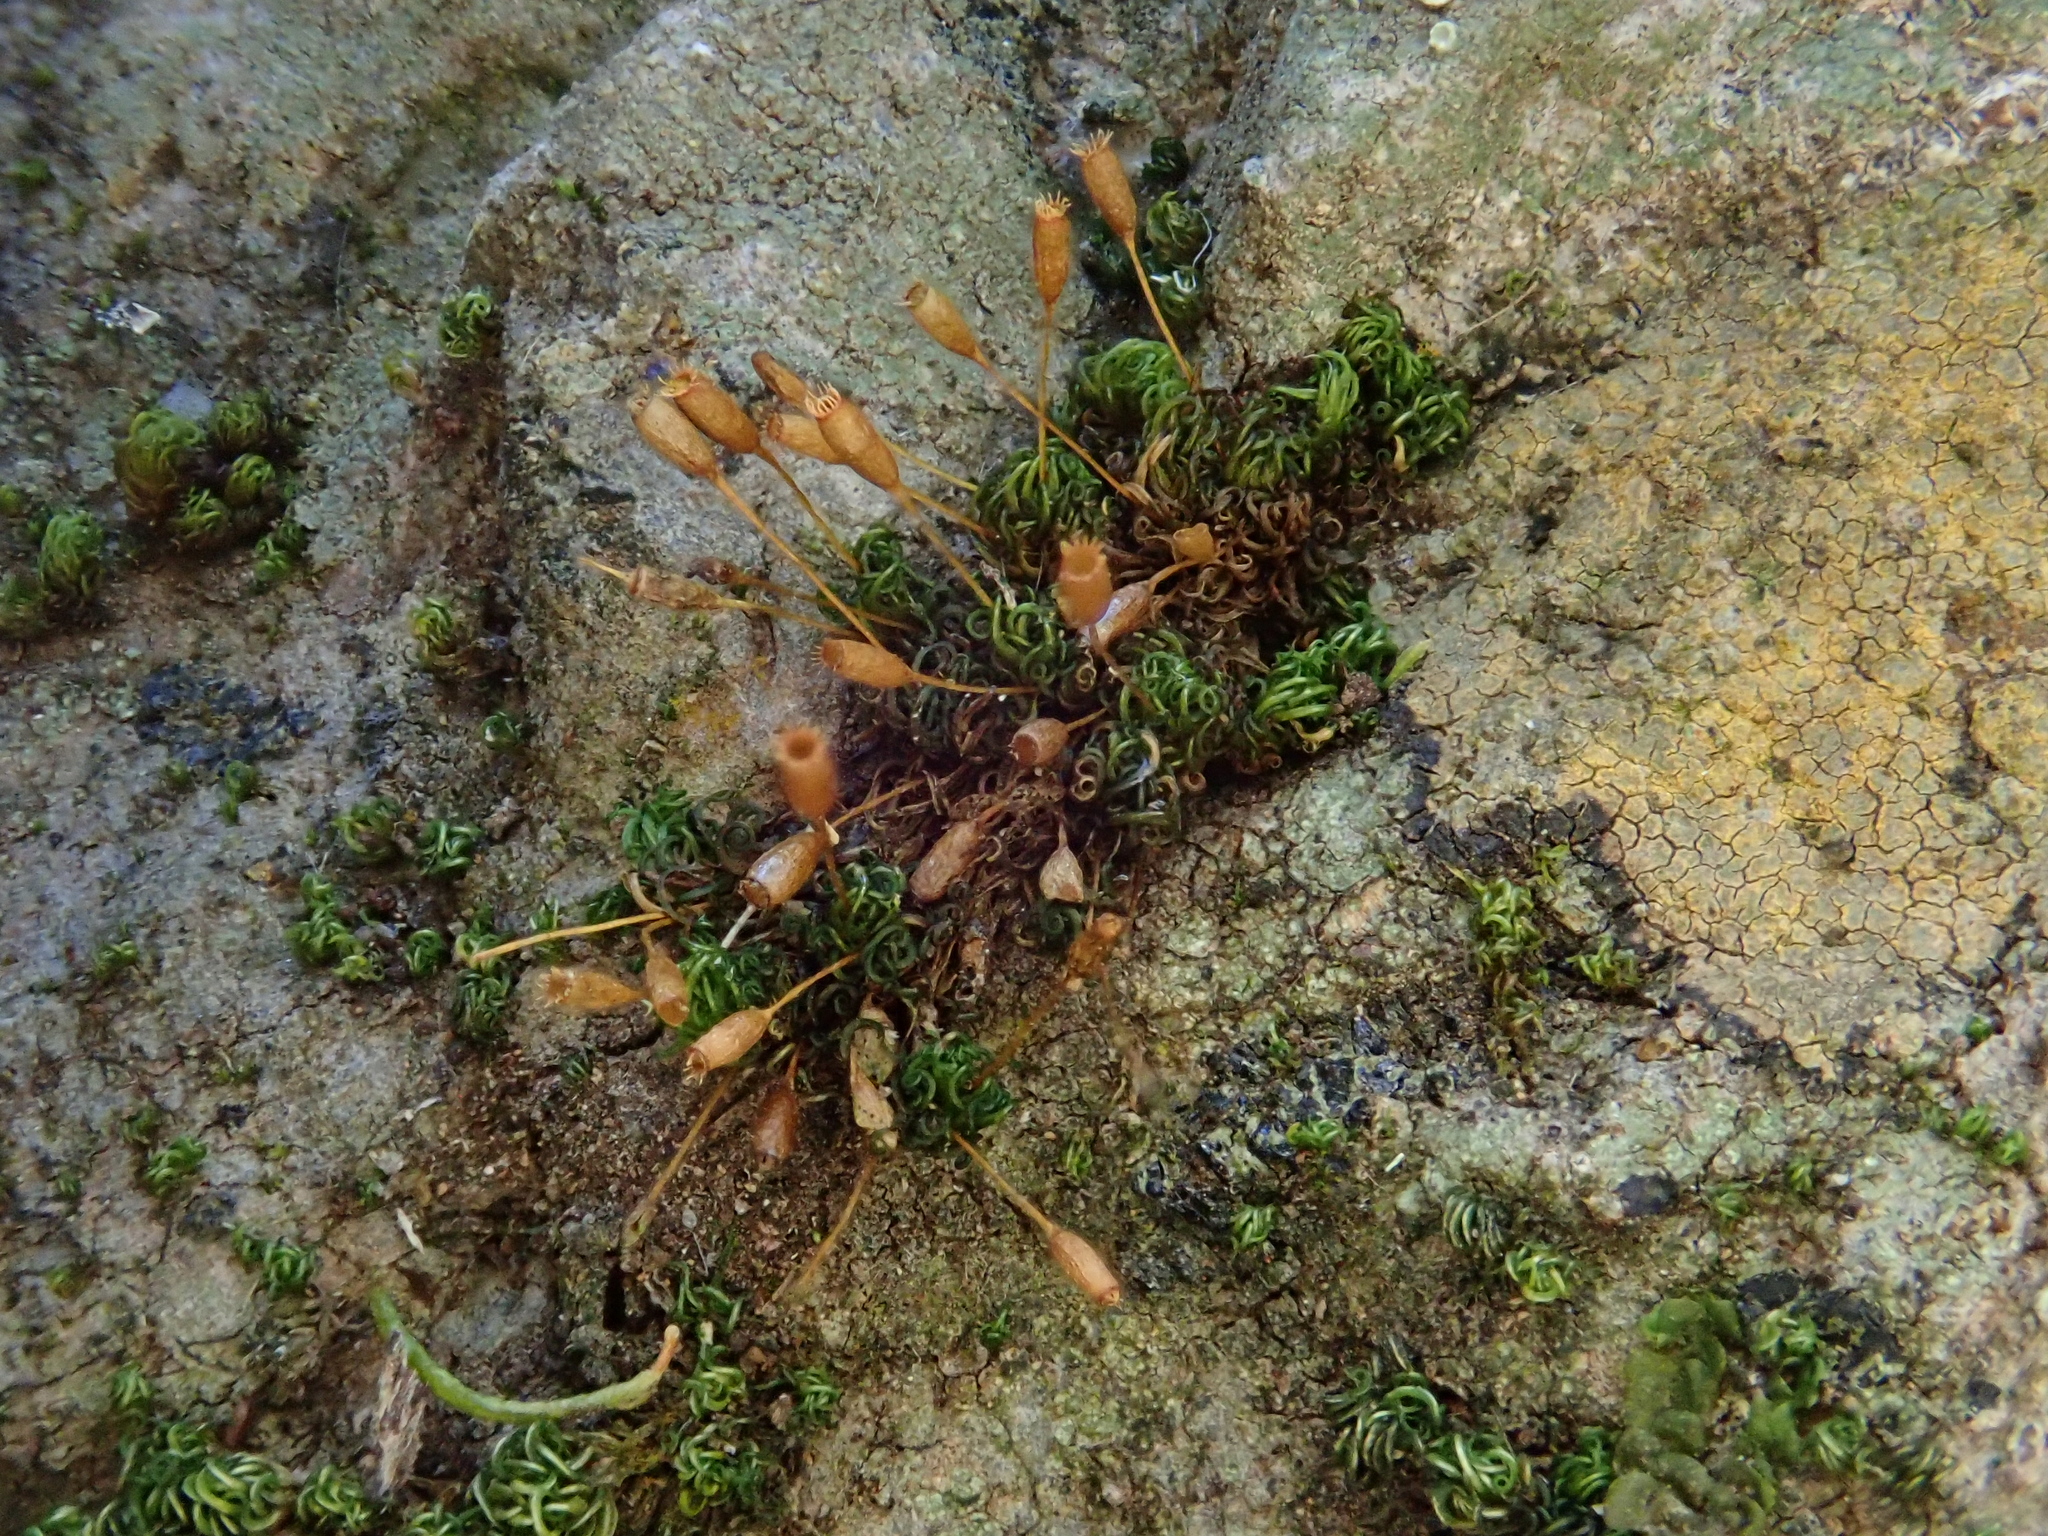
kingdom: Plantae
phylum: Bryophyta
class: Bryopsida
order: Grimmiales
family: Ptychomitriaceae
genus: Ptychomitrium
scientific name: Ptychomitrium nigrescens
